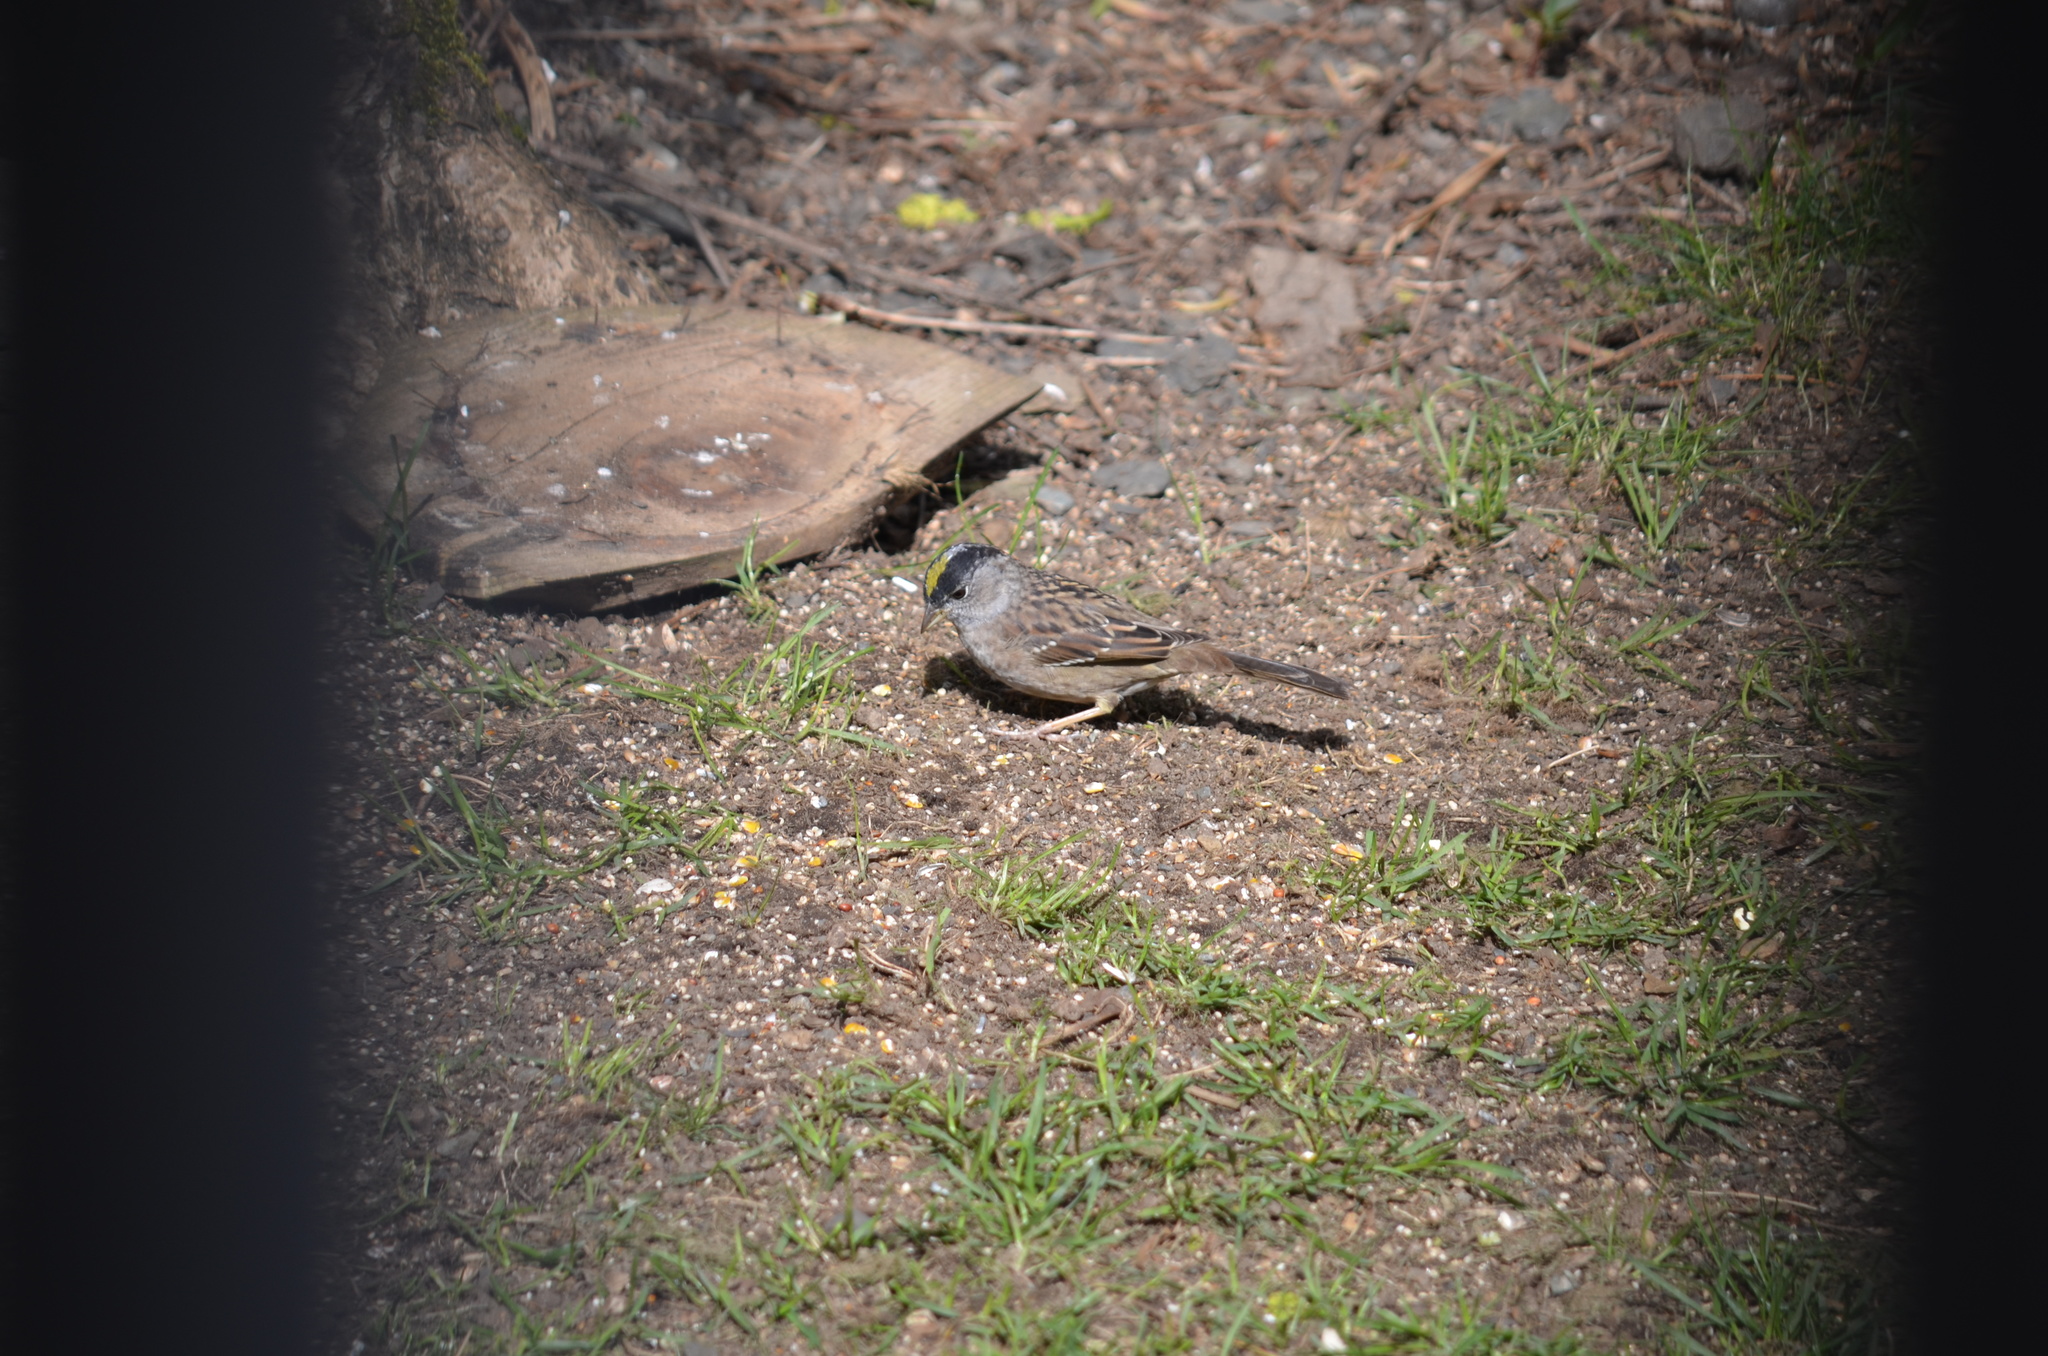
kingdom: Animalia
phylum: Chordata
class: Aves
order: Passeriformes
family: Passerellidae
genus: Zonotrichia
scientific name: Zonotrichia atricapilla
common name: Golden-crowned sparrow
